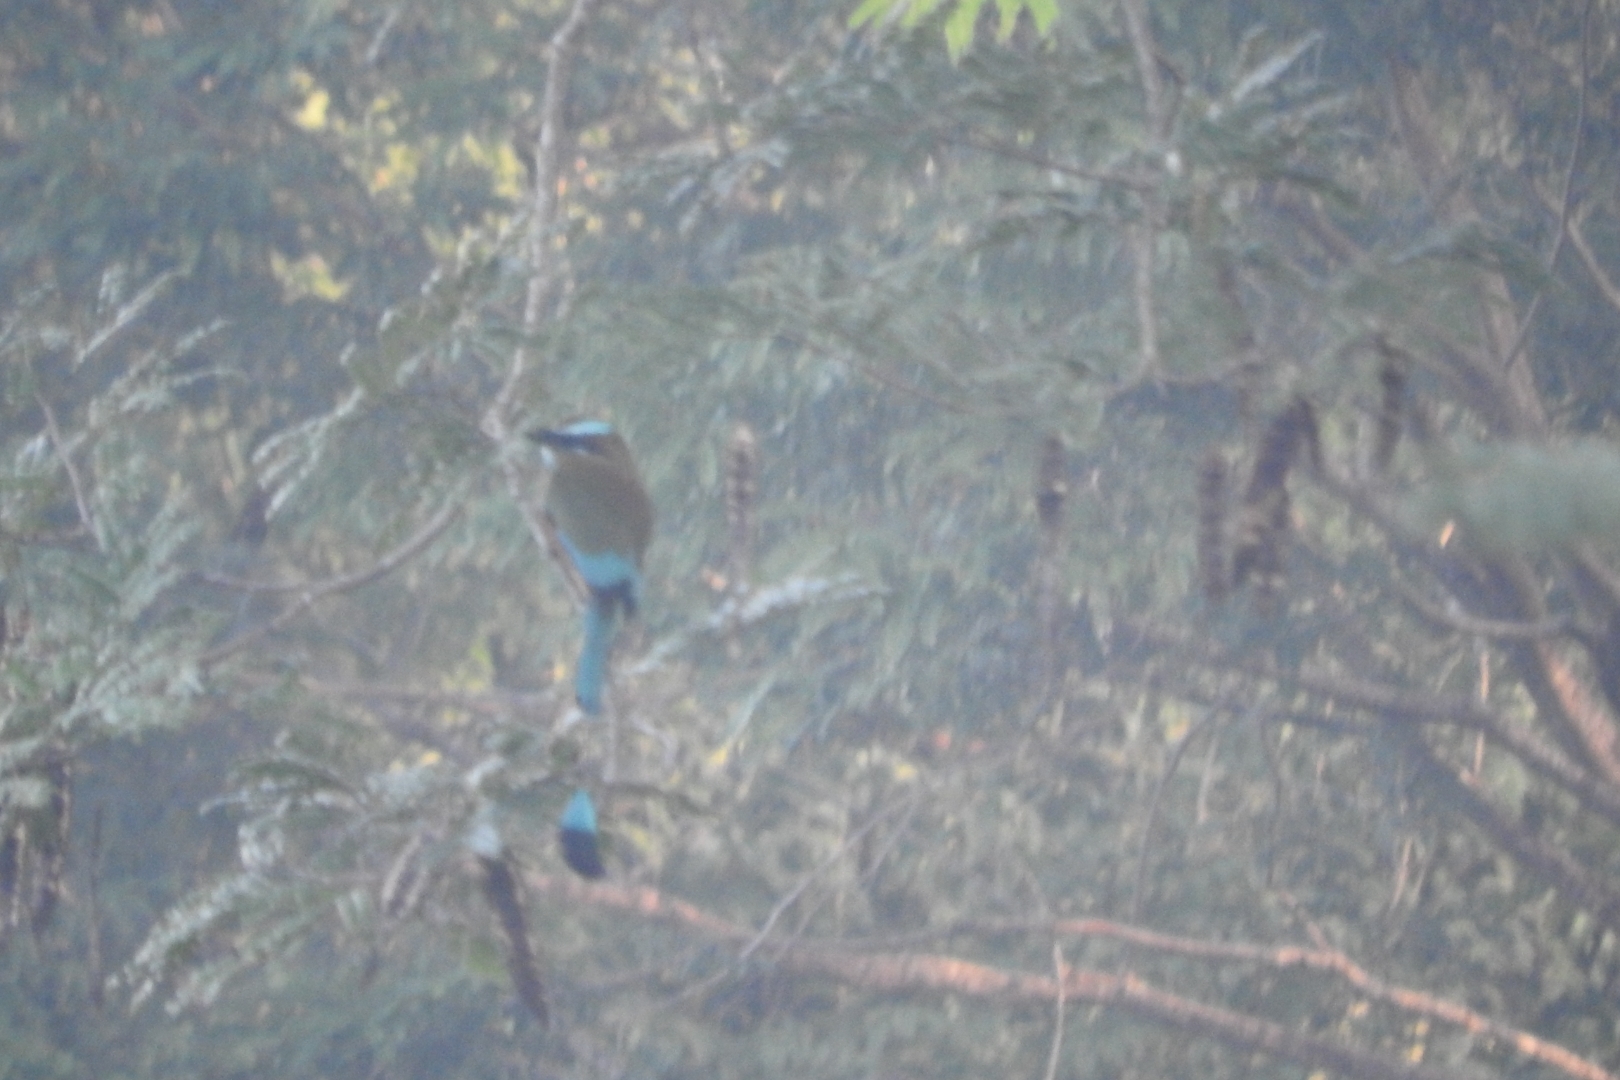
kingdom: Animalia
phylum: Chordata
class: Aves
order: Coraciiformes
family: Momotidae
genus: Eumomota
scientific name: Eumomota superciliosa
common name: Turquoise-browed motmot
